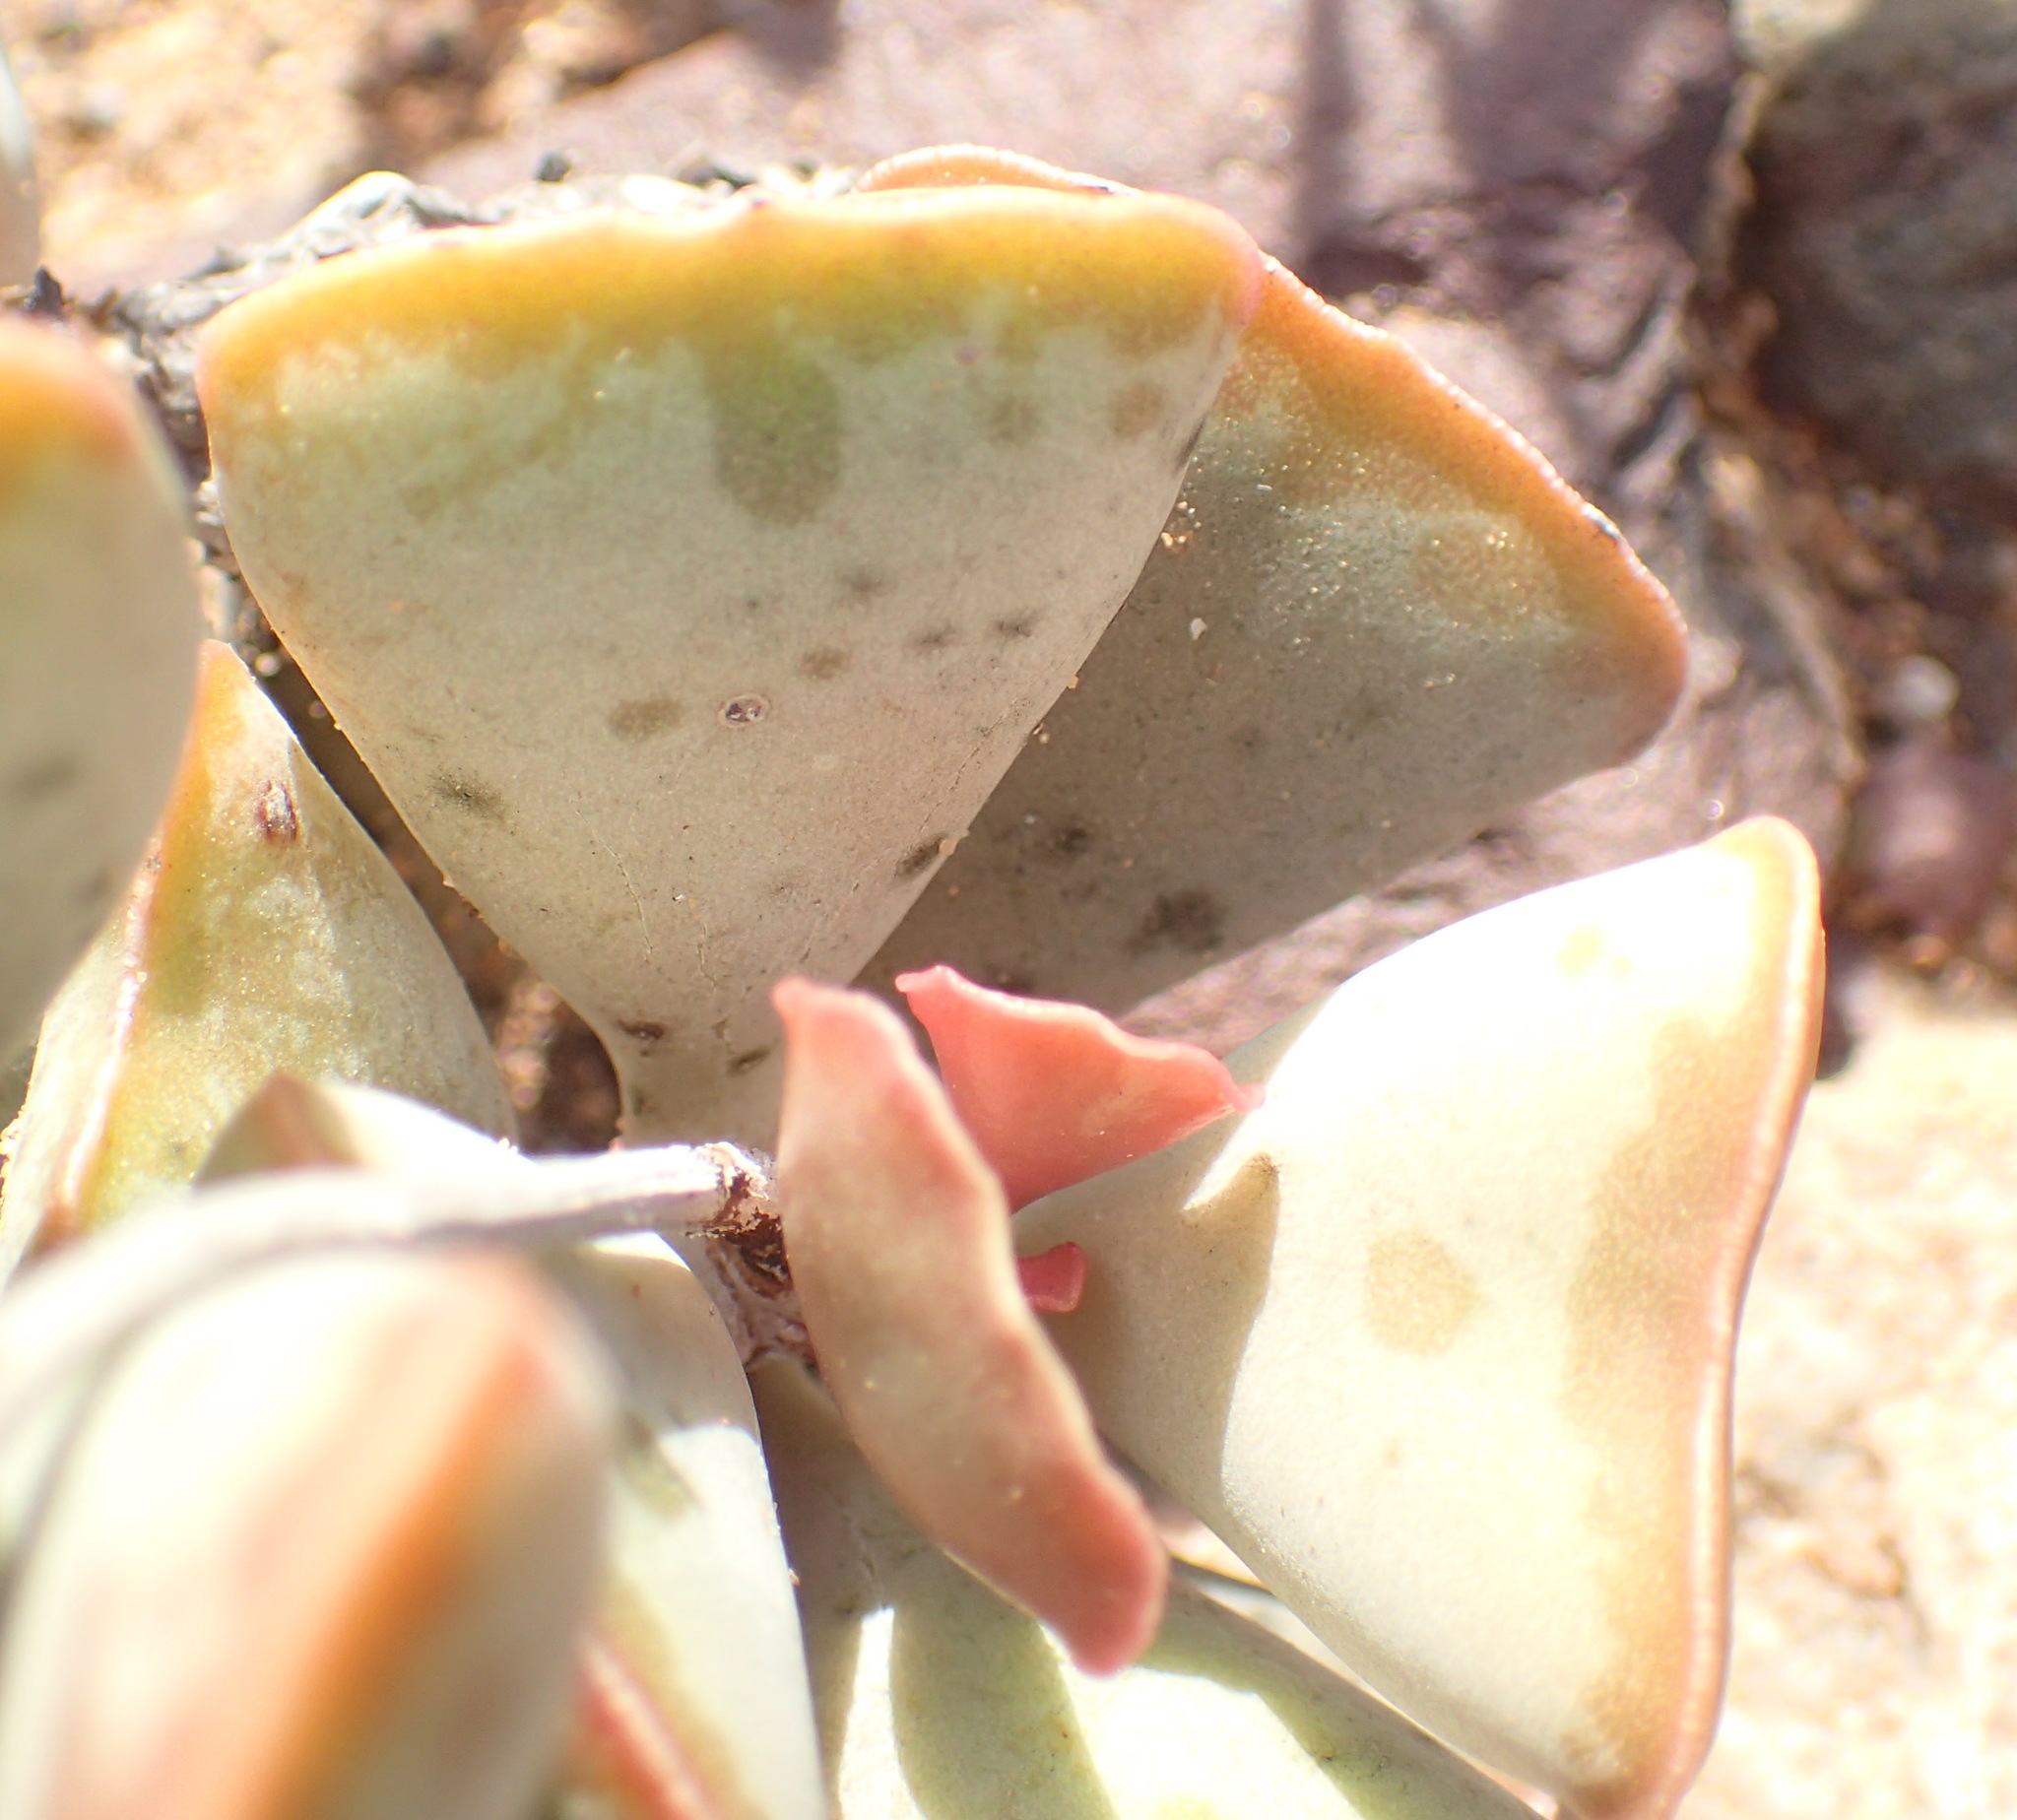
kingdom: Plantae
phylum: Tracheophyta
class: Magnoliopsida
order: Saxifragales
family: Crassulaceae
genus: Adromischus
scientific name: Adromischus triflorus
